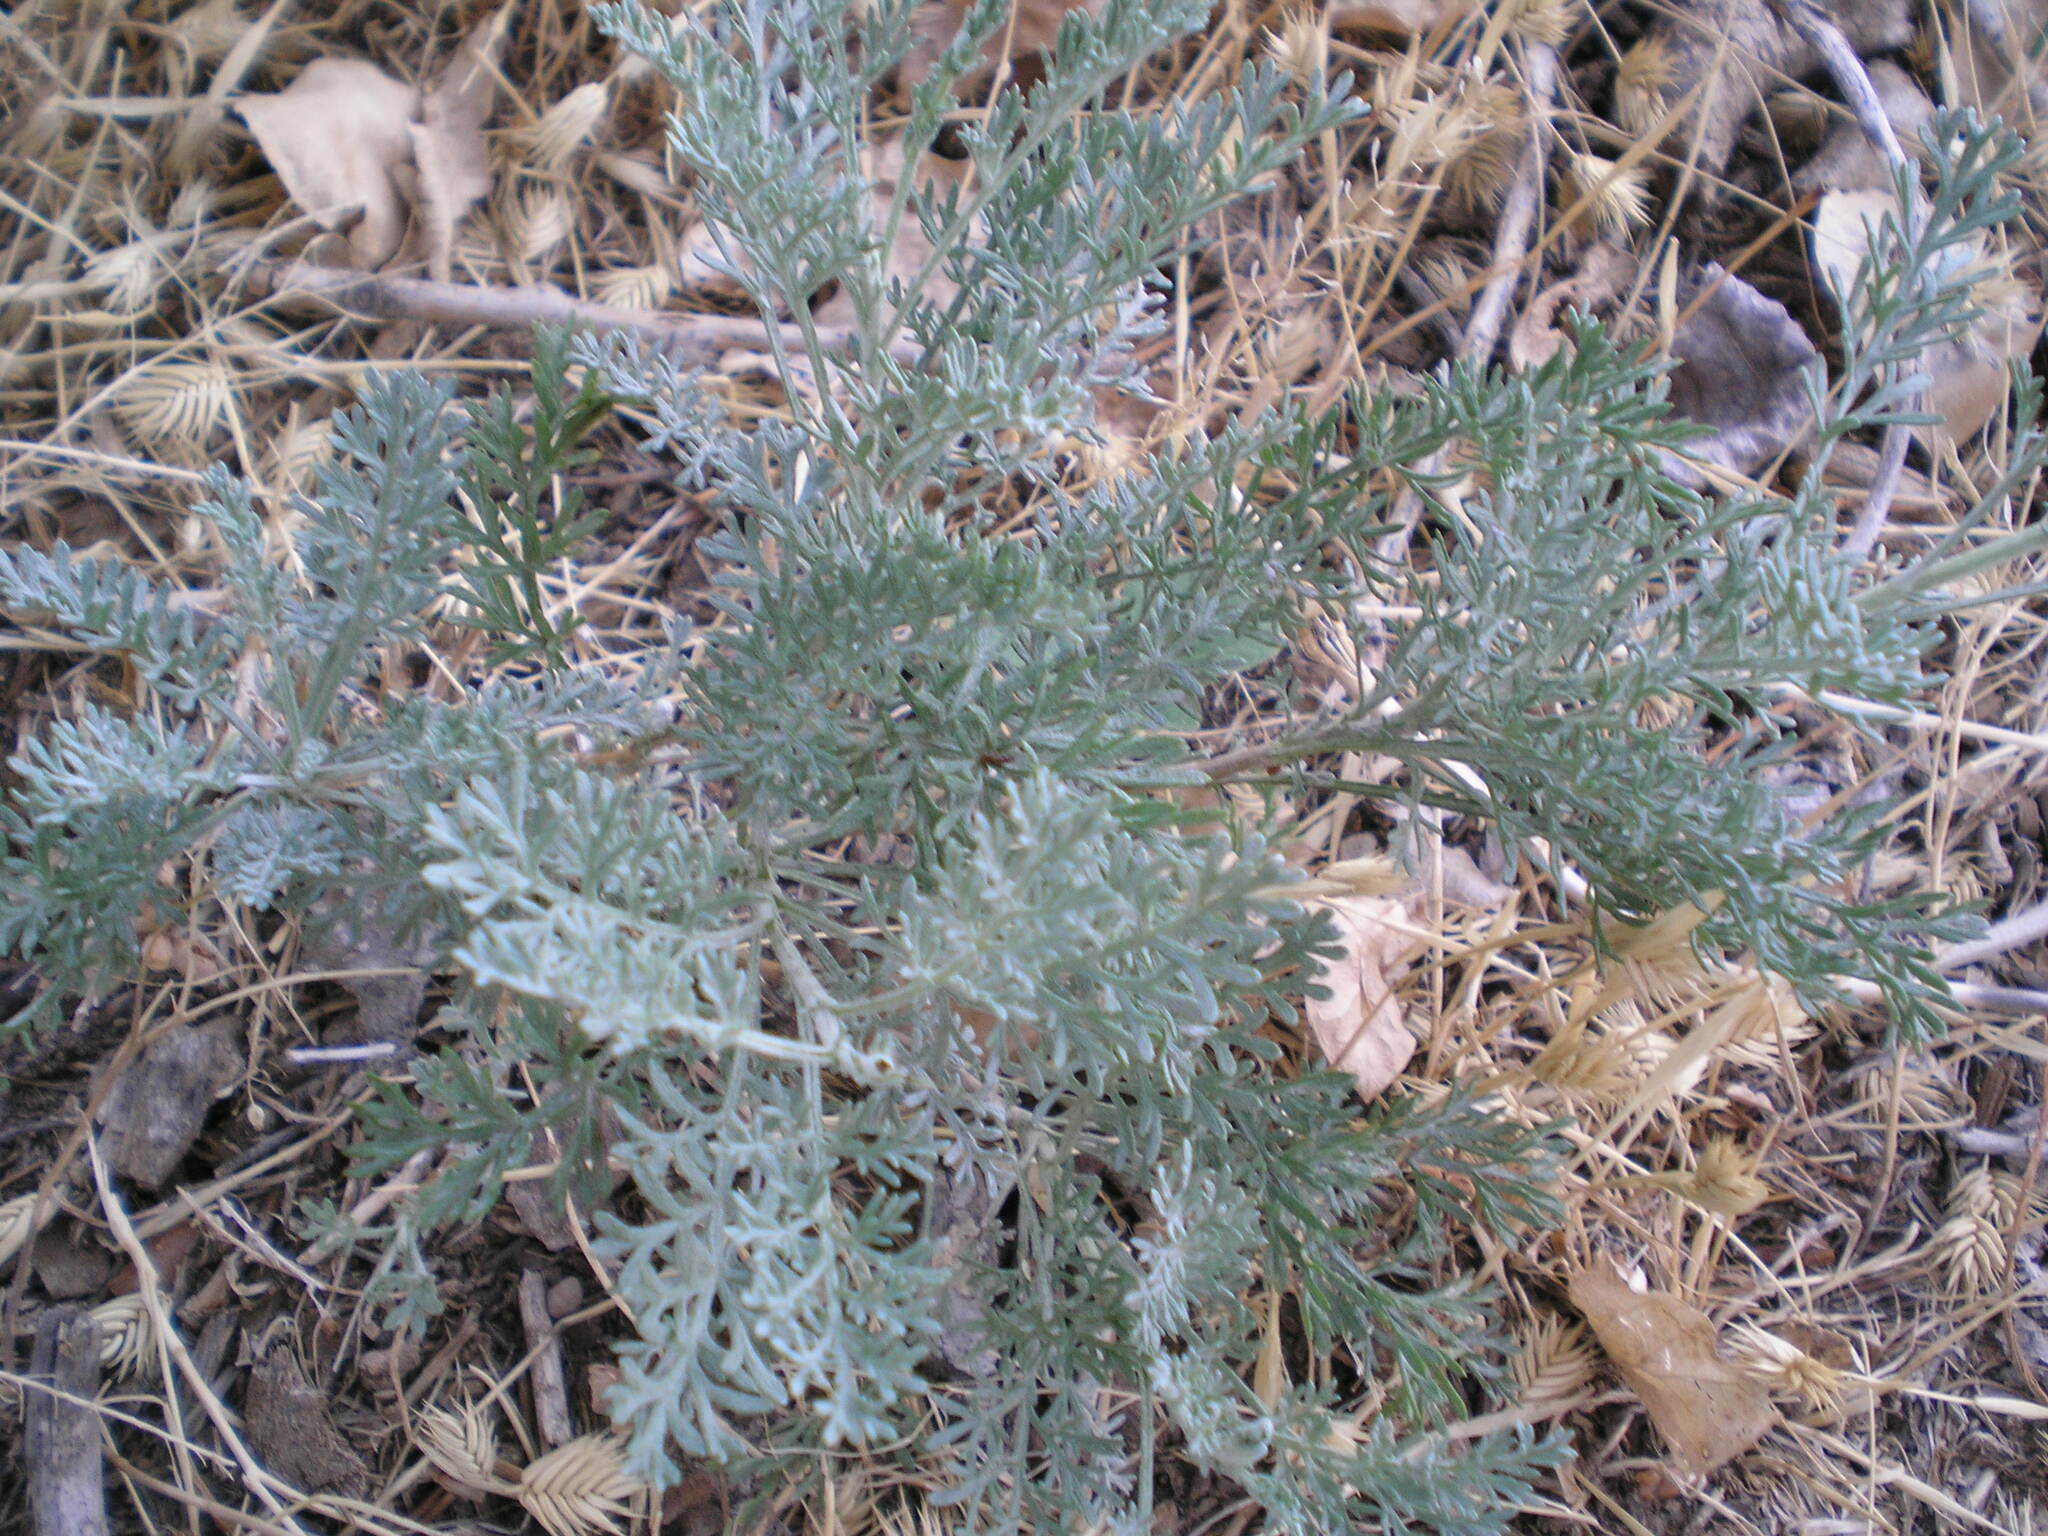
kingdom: Plantae
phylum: Tracheophyta
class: Magnoliopsida
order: Asterales
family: Asteraceae
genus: Artemisia
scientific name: Artemisia santonicum
